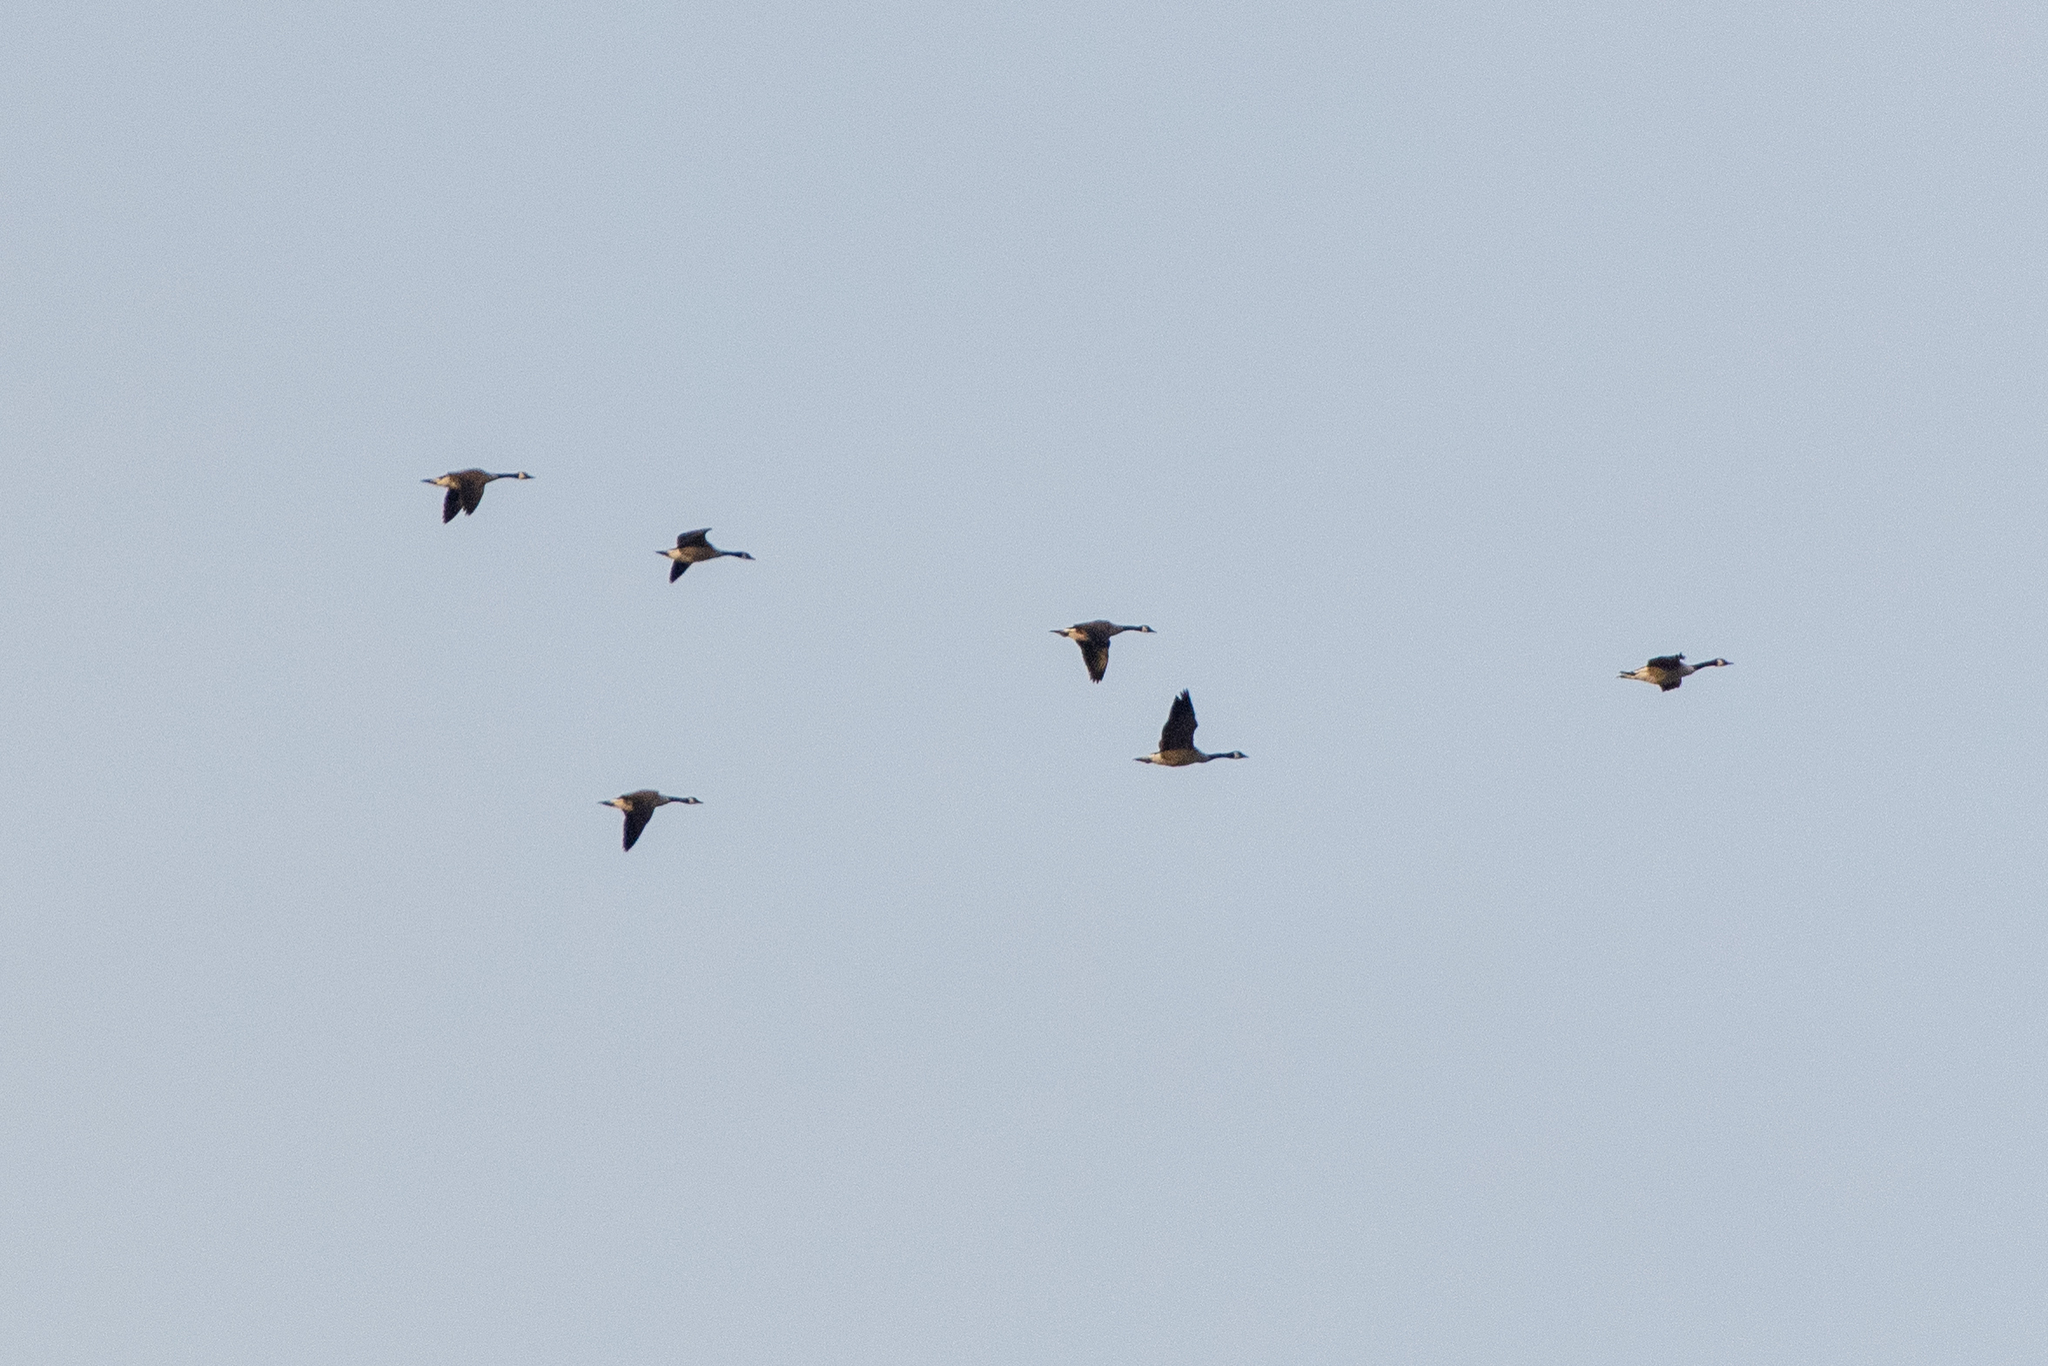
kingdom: Animalia
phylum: Chordata
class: Aves
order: Anseriformes
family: Anatidae
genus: Branta
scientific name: Branta canadensis
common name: Canada goose
